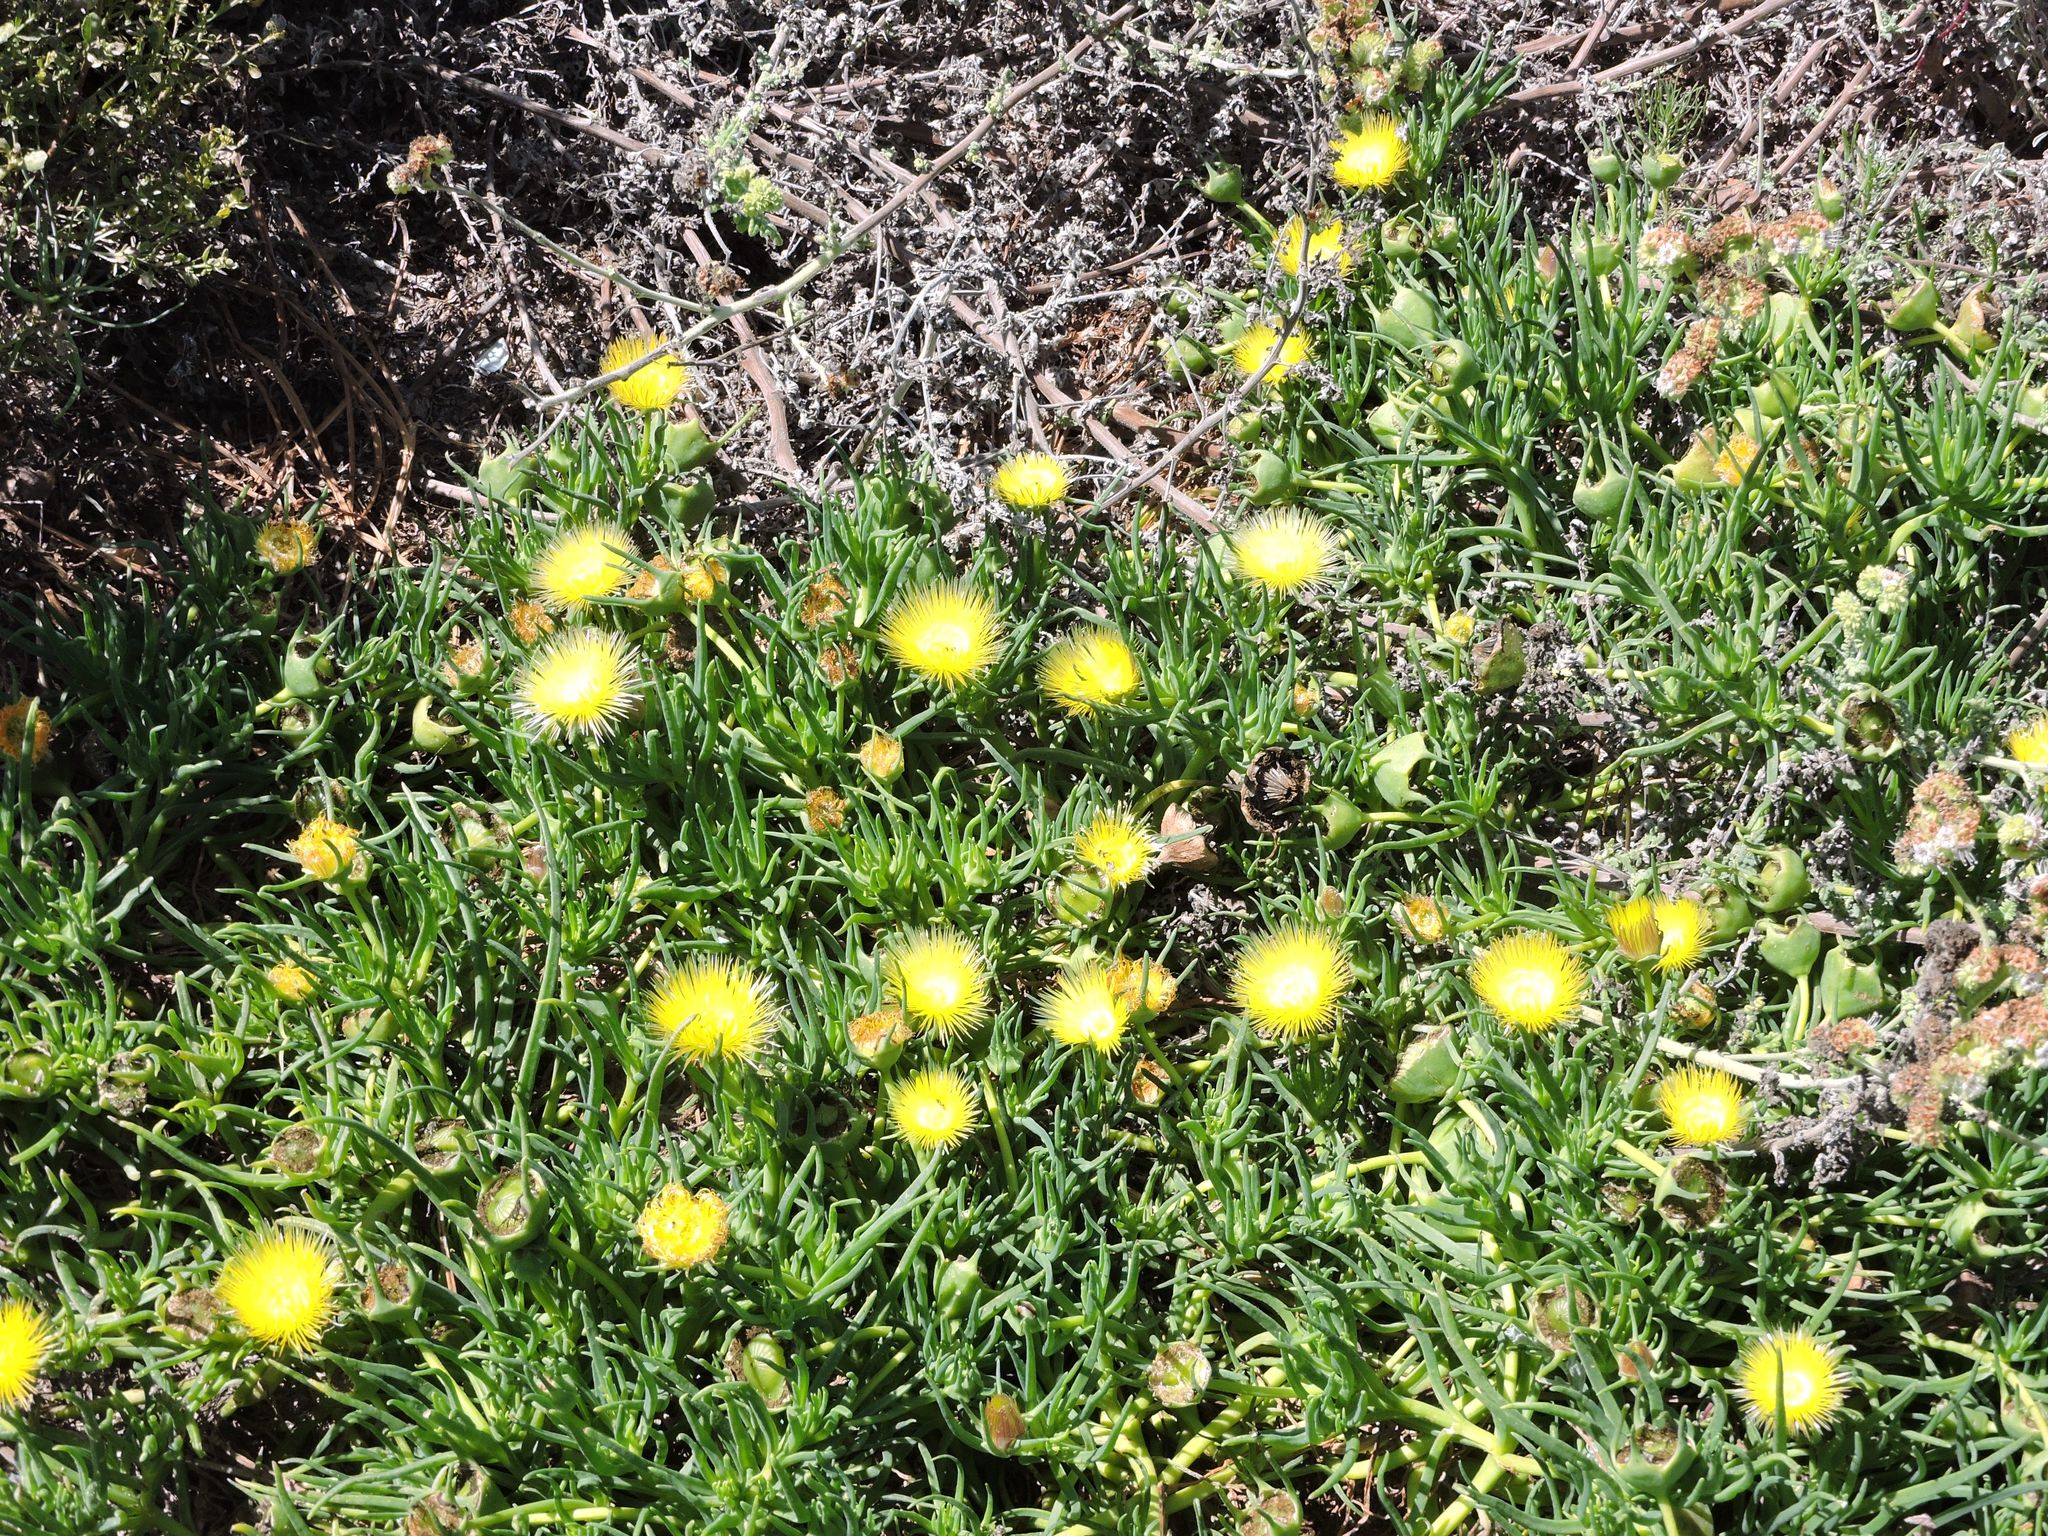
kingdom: Plantae
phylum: Tracheophyta
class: Magnoliopsida
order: Caryophyllales
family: Aizoaceae
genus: Conicosia
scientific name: Conicosia pugioniformis
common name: Narrow-leaved iceplant
